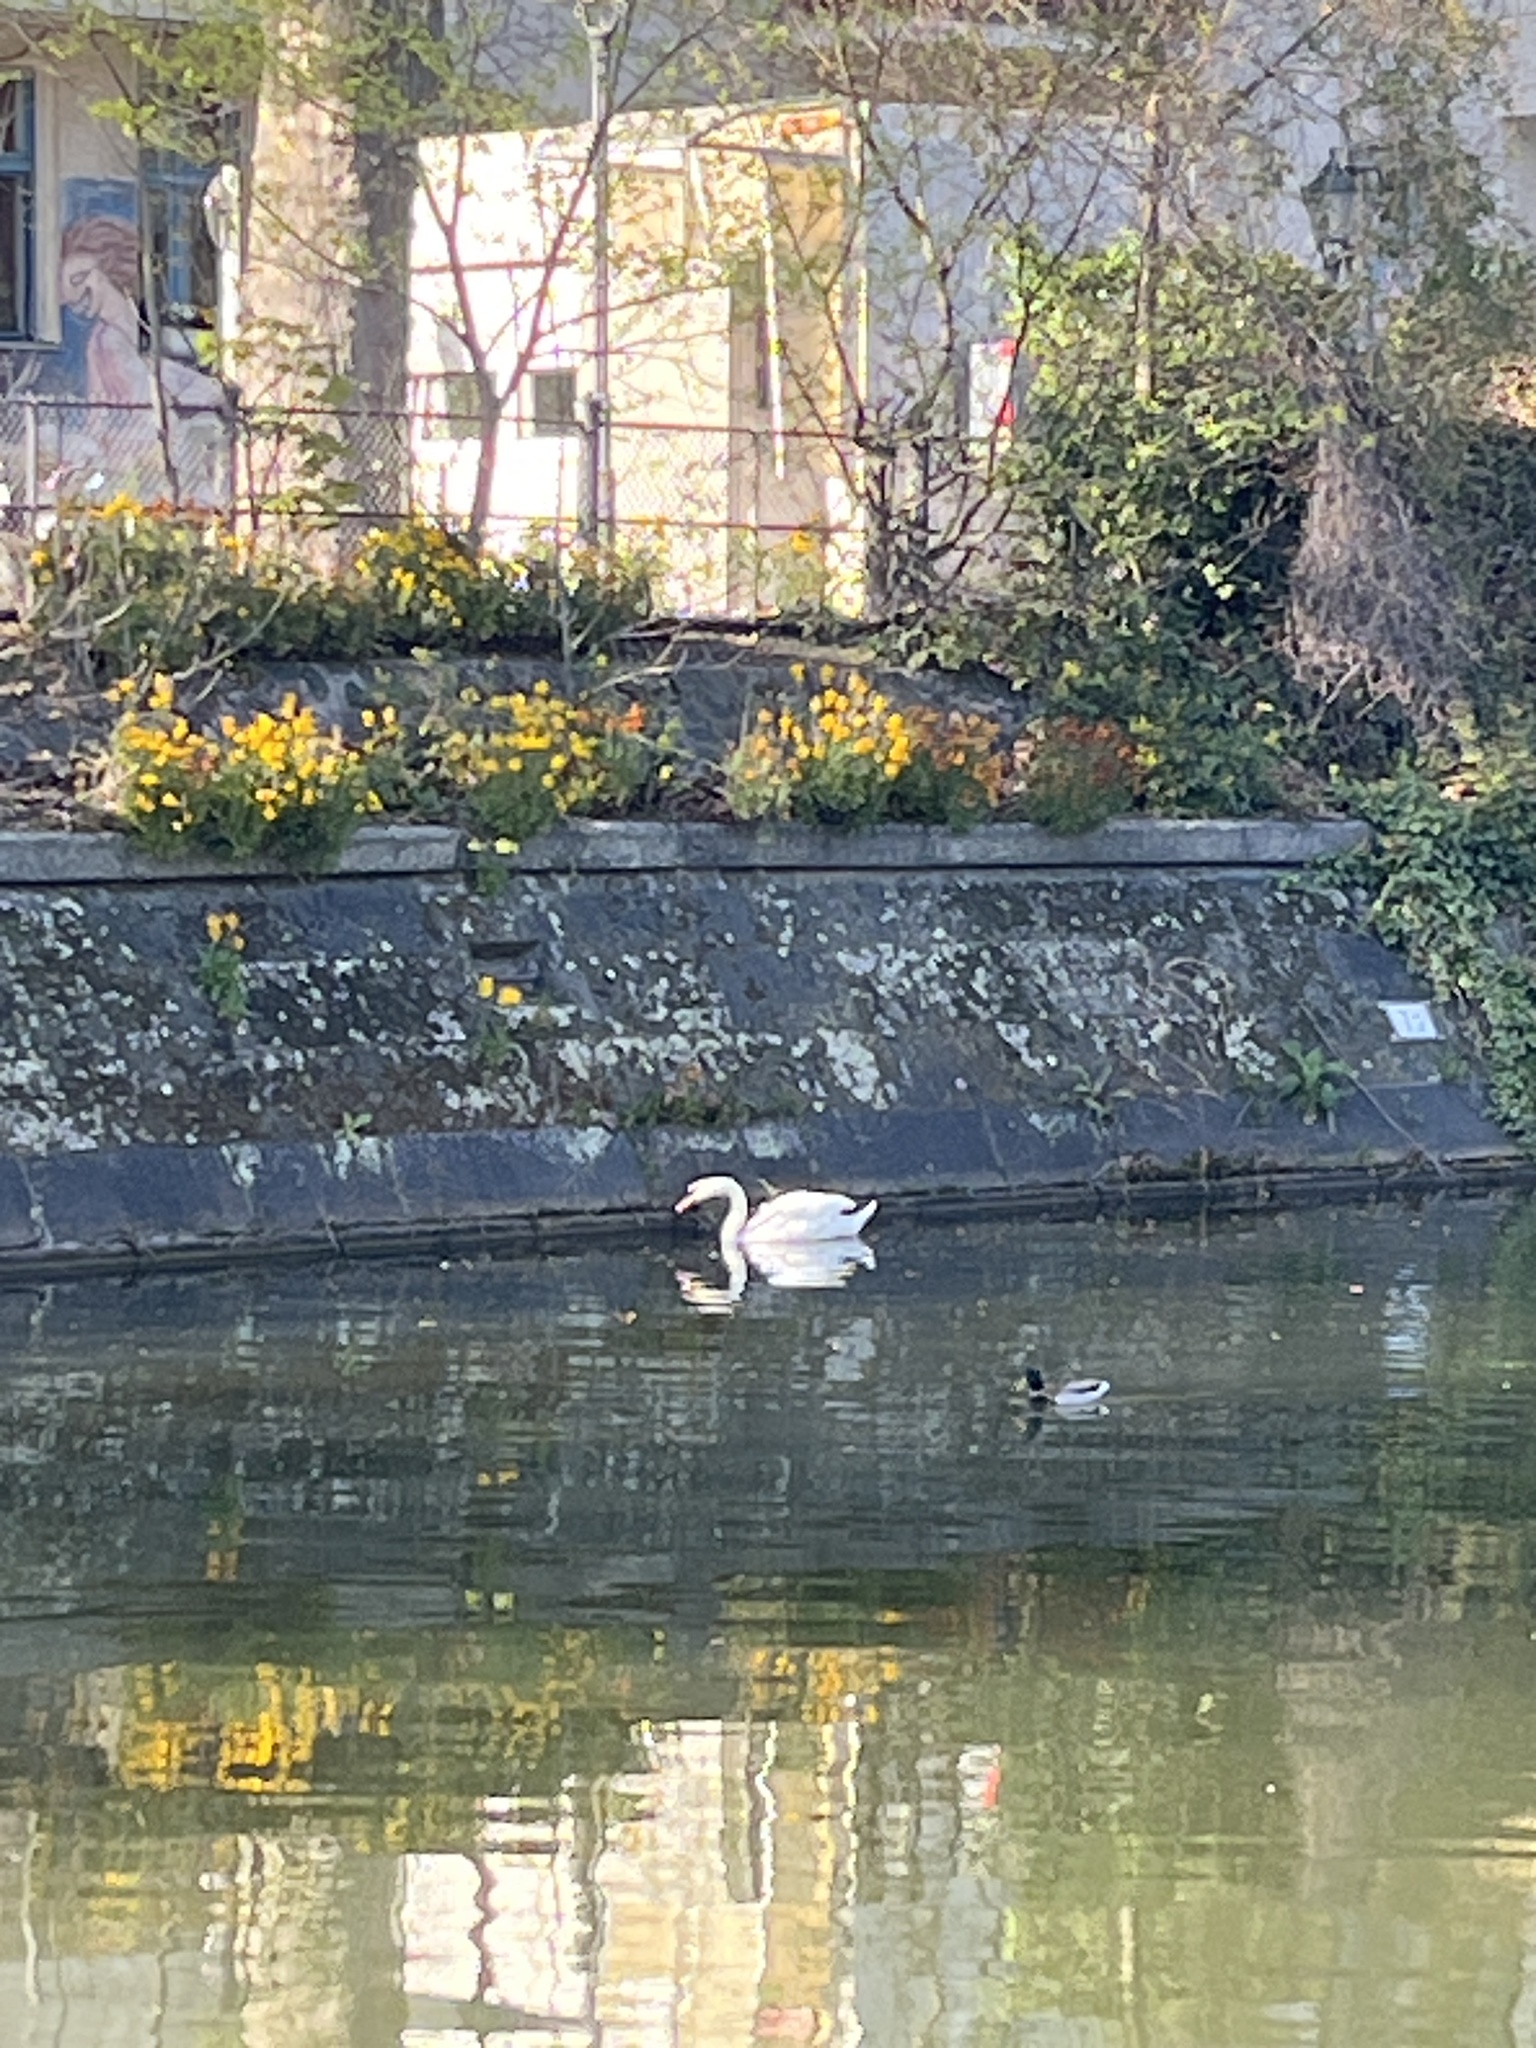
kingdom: Animalia
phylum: Chordata
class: Aves
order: Anseriformes
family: Anatidae
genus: Cygnus
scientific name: Cygnus olor
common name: Mute swan
